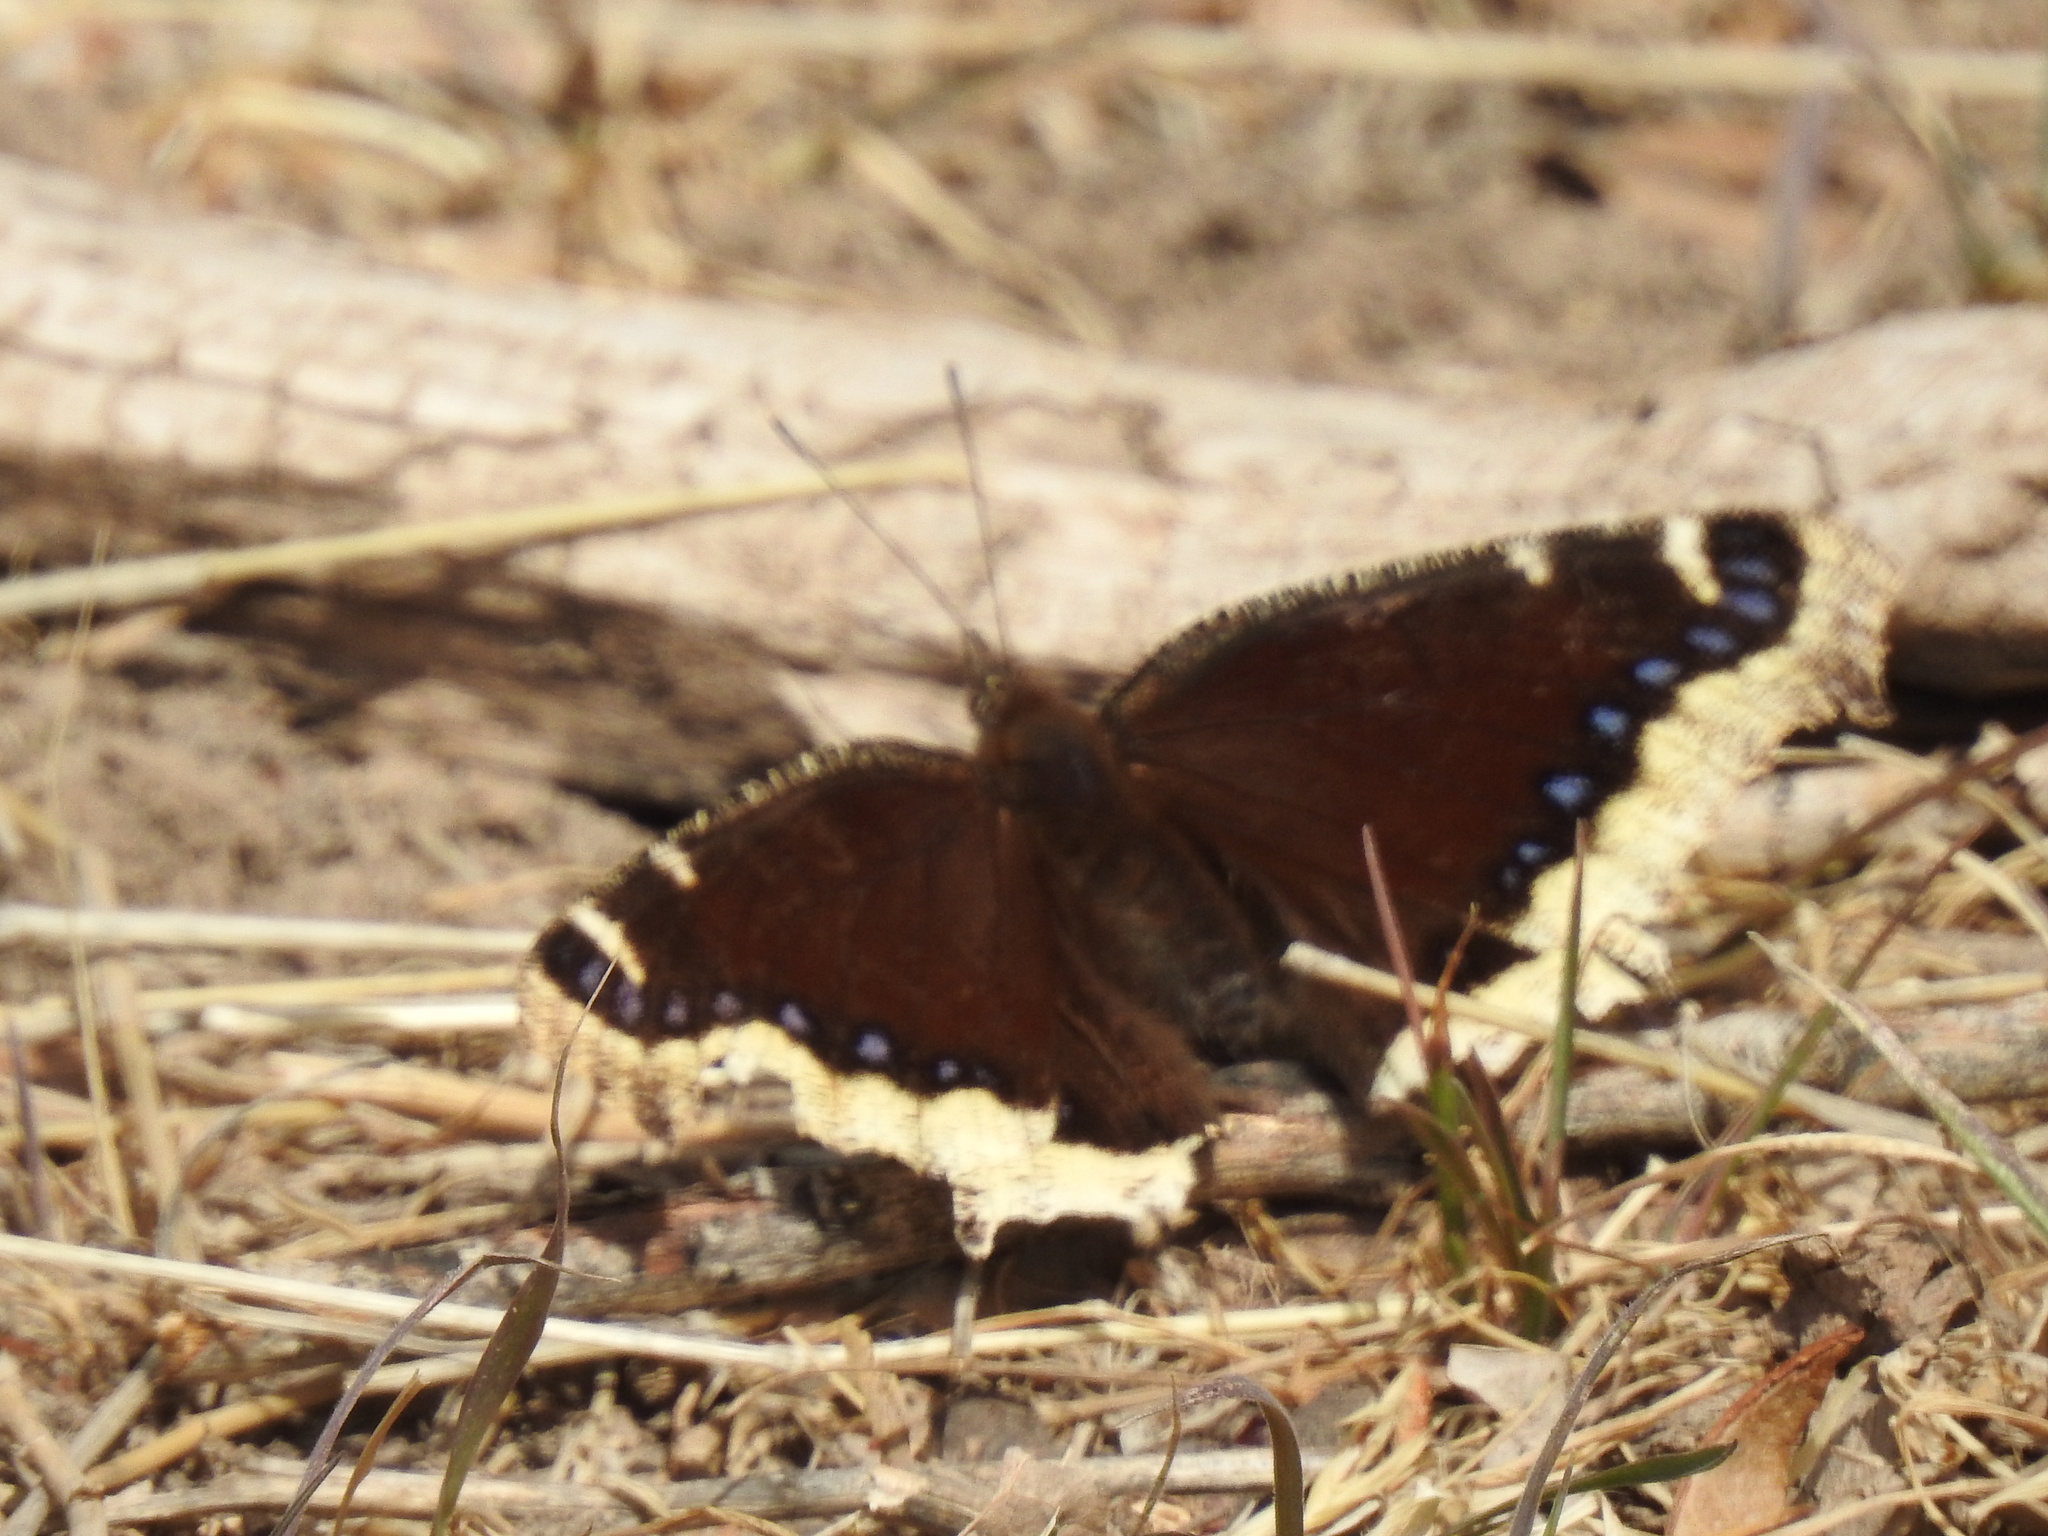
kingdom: Animalia
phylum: Arthropoda
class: Insecta
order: Lepidoptera
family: Nymphalidae
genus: Nymphalis
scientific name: Nymphalis antiopa
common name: Camberwell beauty
